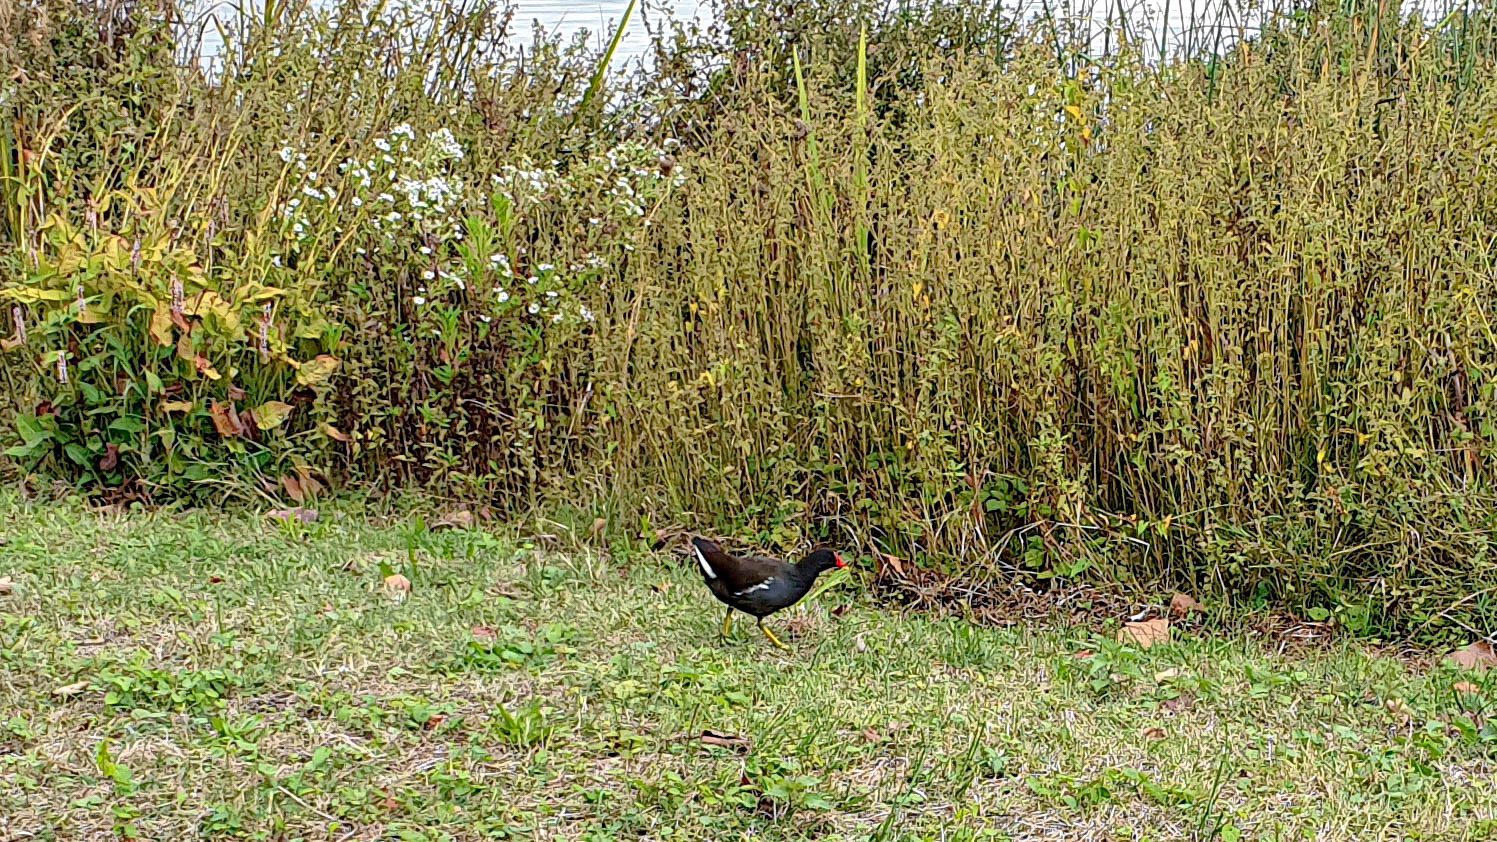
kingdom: Animalia
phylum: Chordata
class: Aves
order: Gruiformes
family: Rallidae
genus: Gallinula
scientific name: Gallinula chloropus
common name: Common moorhen
